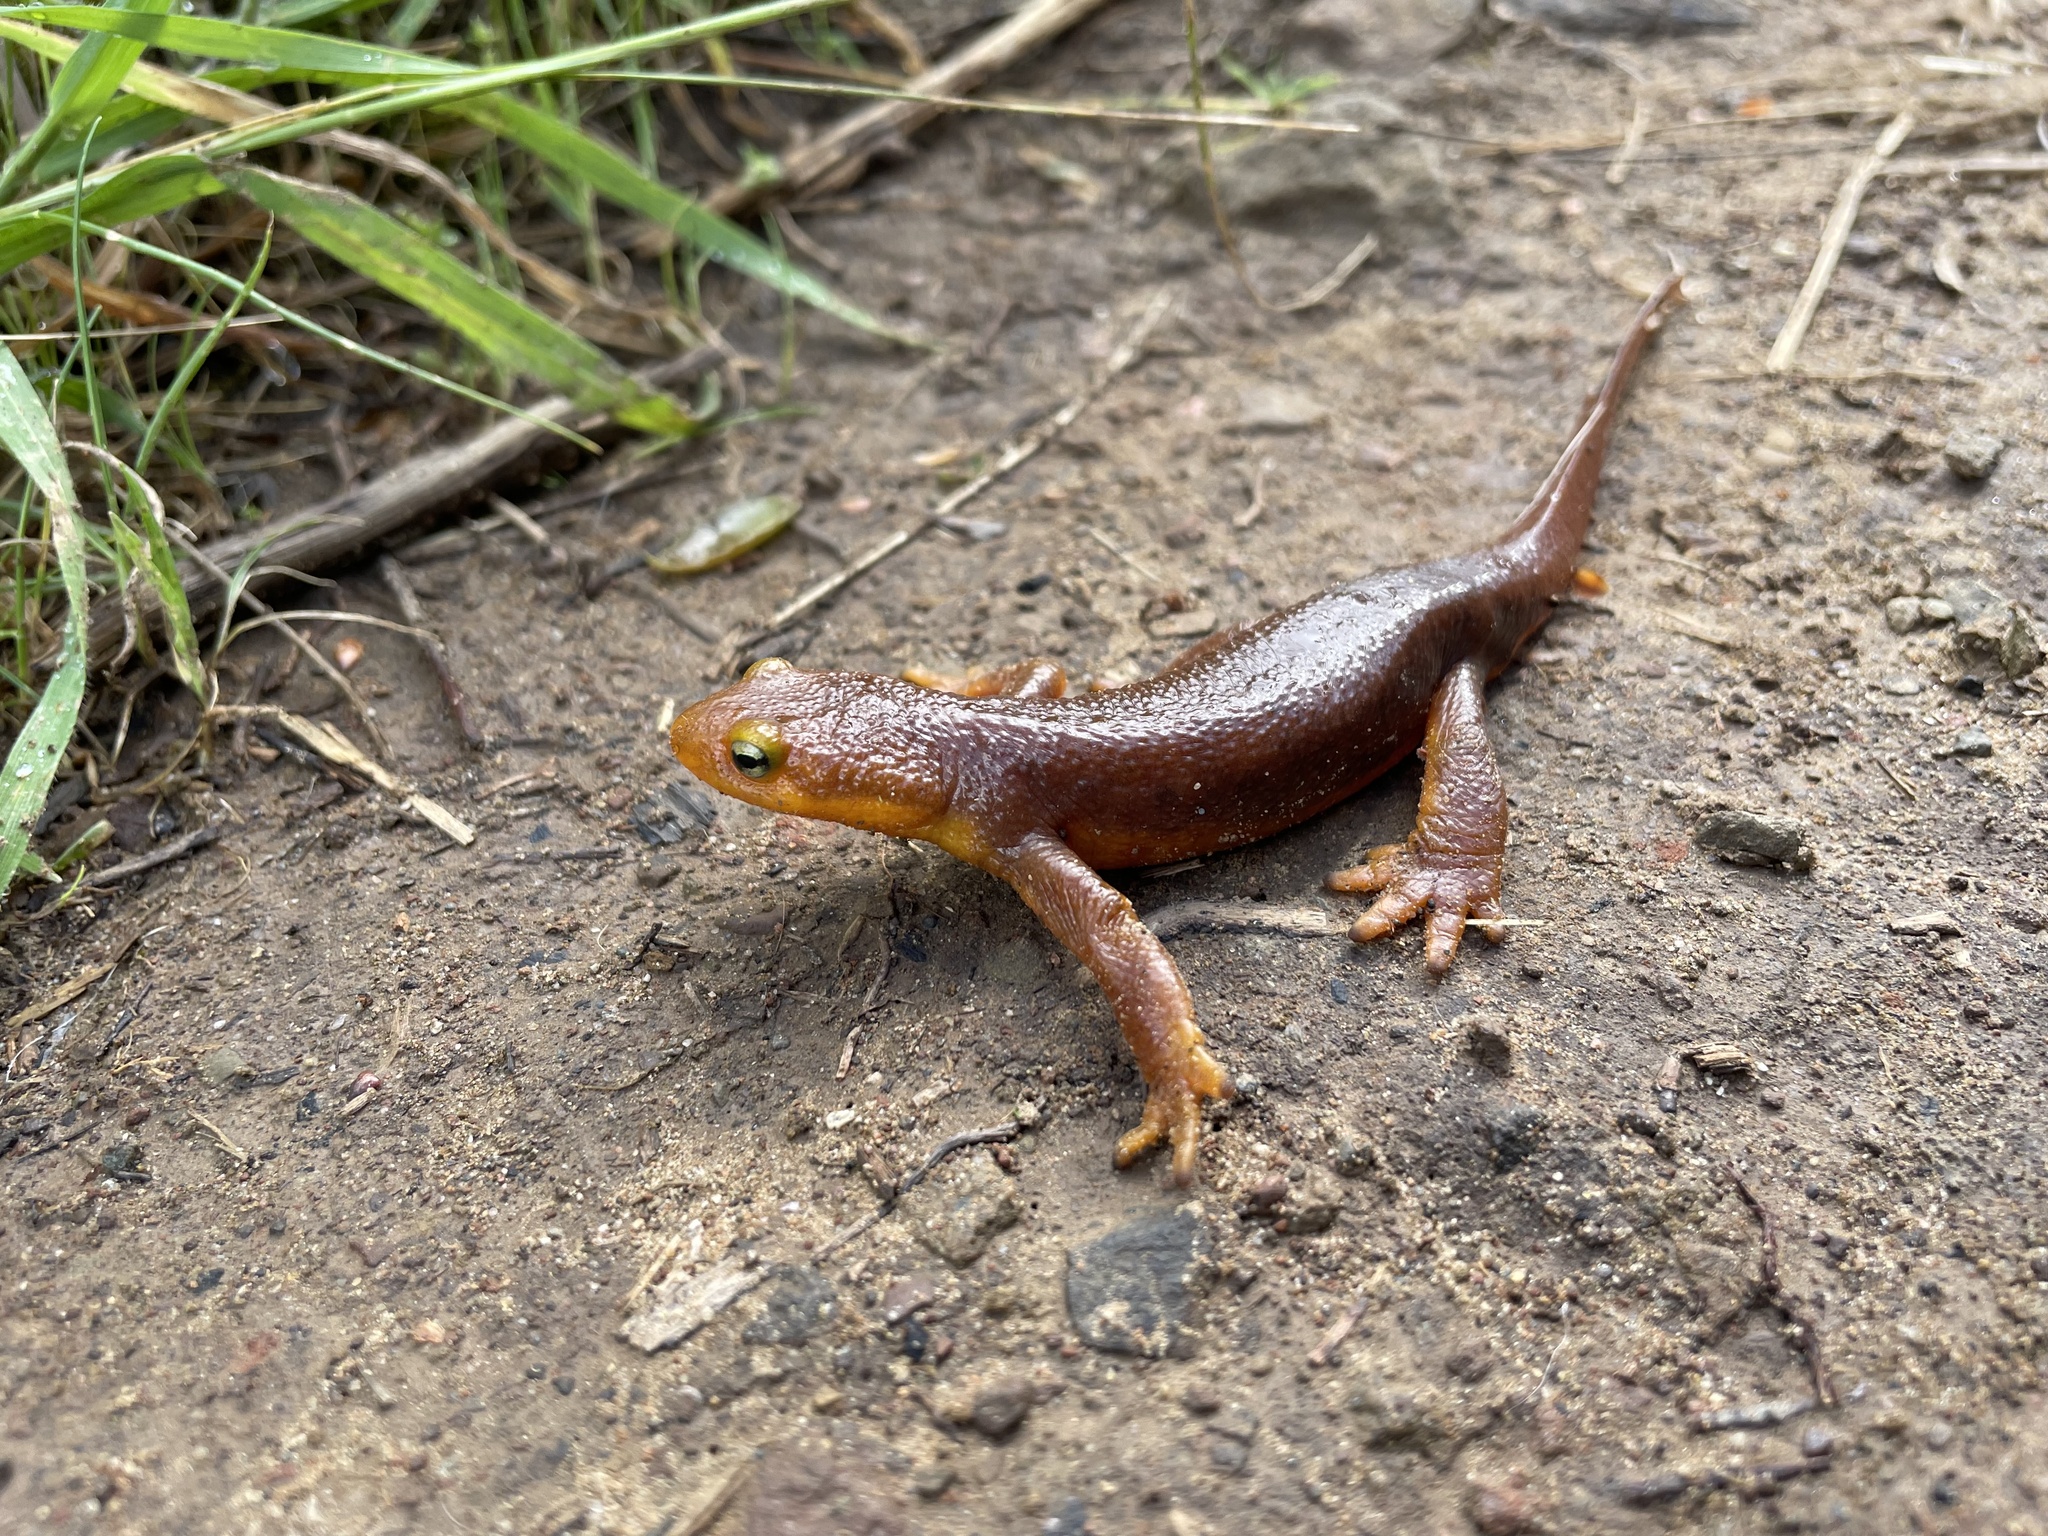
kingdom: Animalia
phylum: Chordata
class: Amphibia
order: Caudata
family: Salamandridae
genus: Taricha
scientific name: Taricha torosa
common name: California newt
